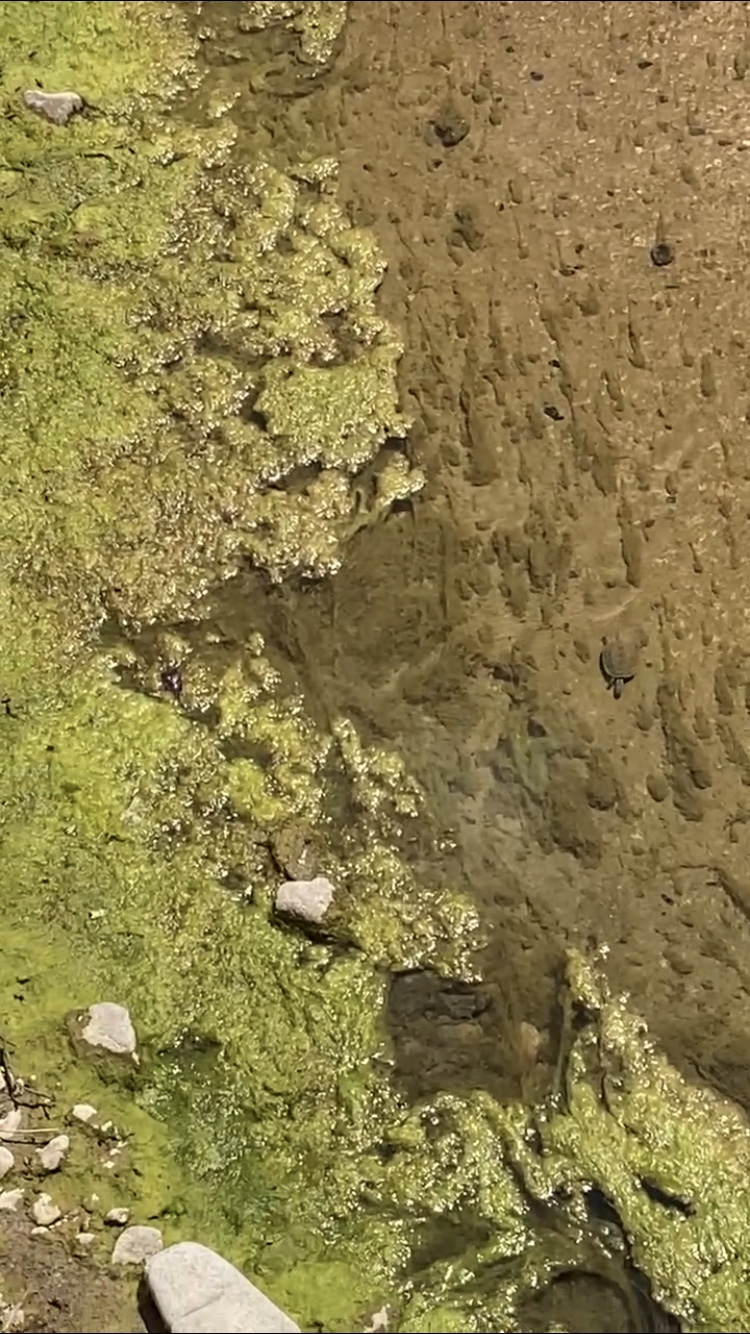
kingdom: Animalia
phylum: Chordata
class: Testudines
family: Geoemydidae
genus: Mauremys
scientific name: Mauremys rivulata
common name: Western caspian turtle
